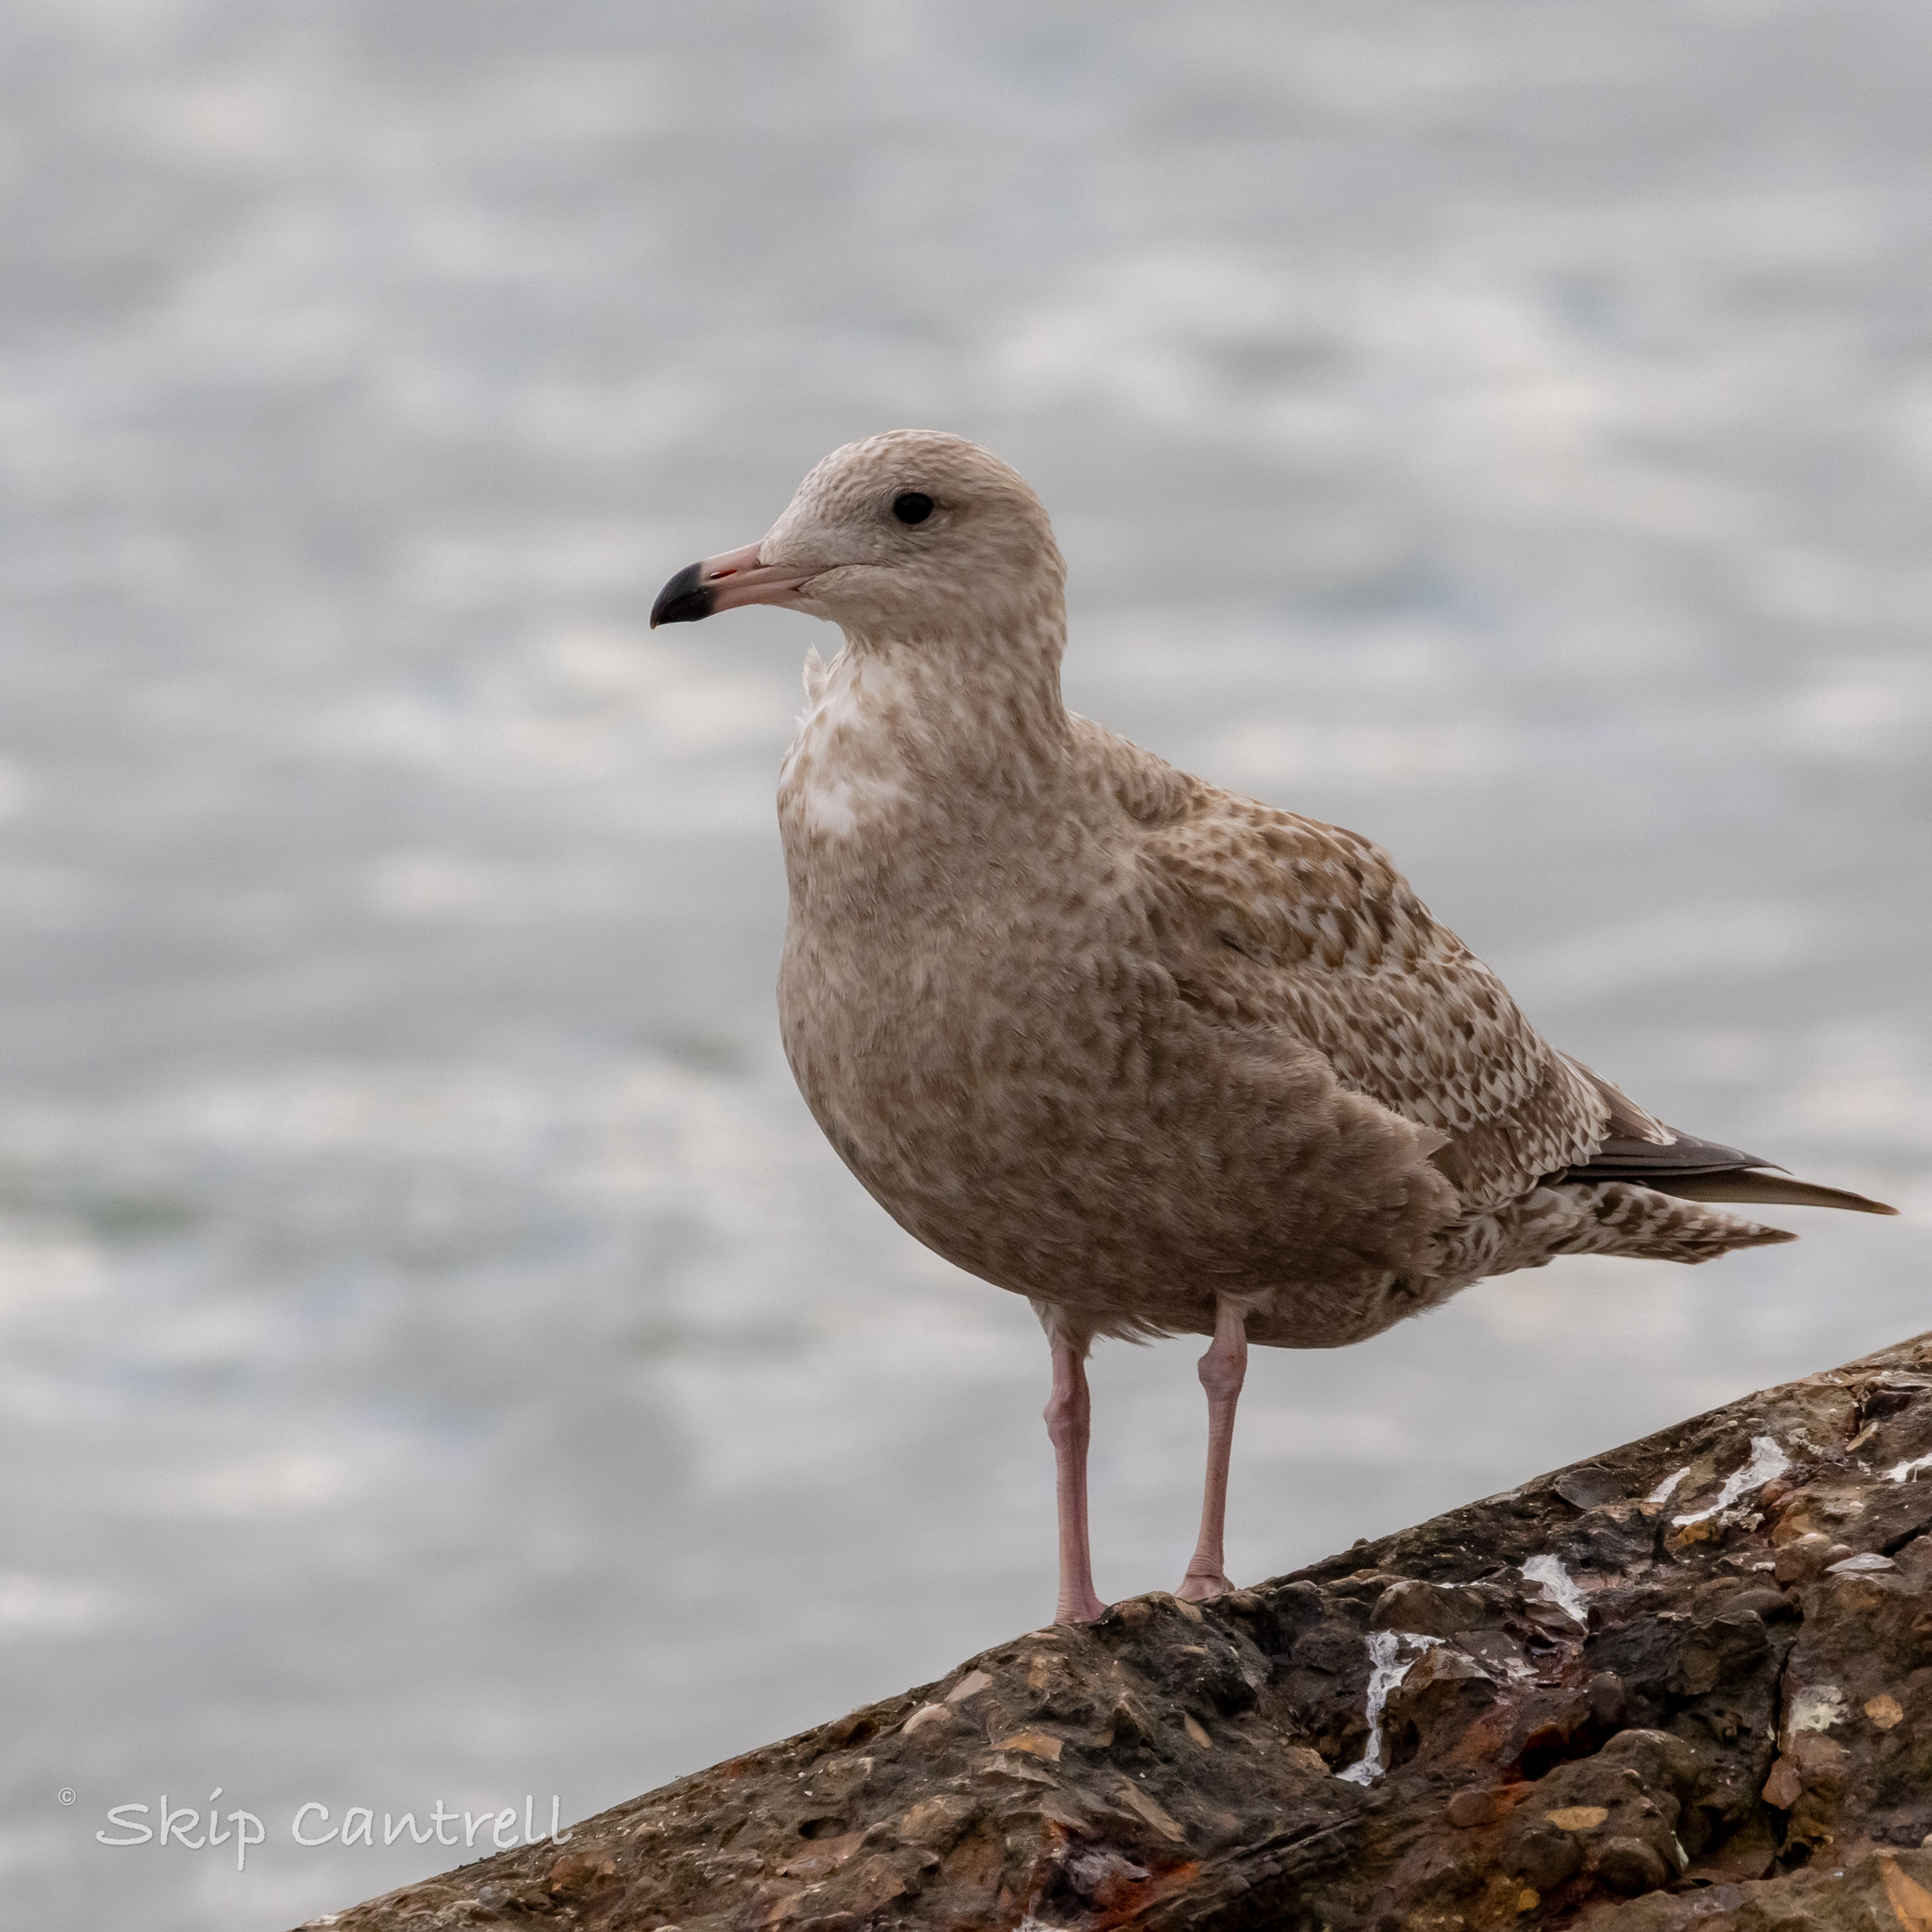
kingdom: Animalia
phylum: Chordata
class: Aves
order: Charadriiformes
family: Laridae
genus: Larus
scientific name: Larus argentatus
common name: Herring gull
